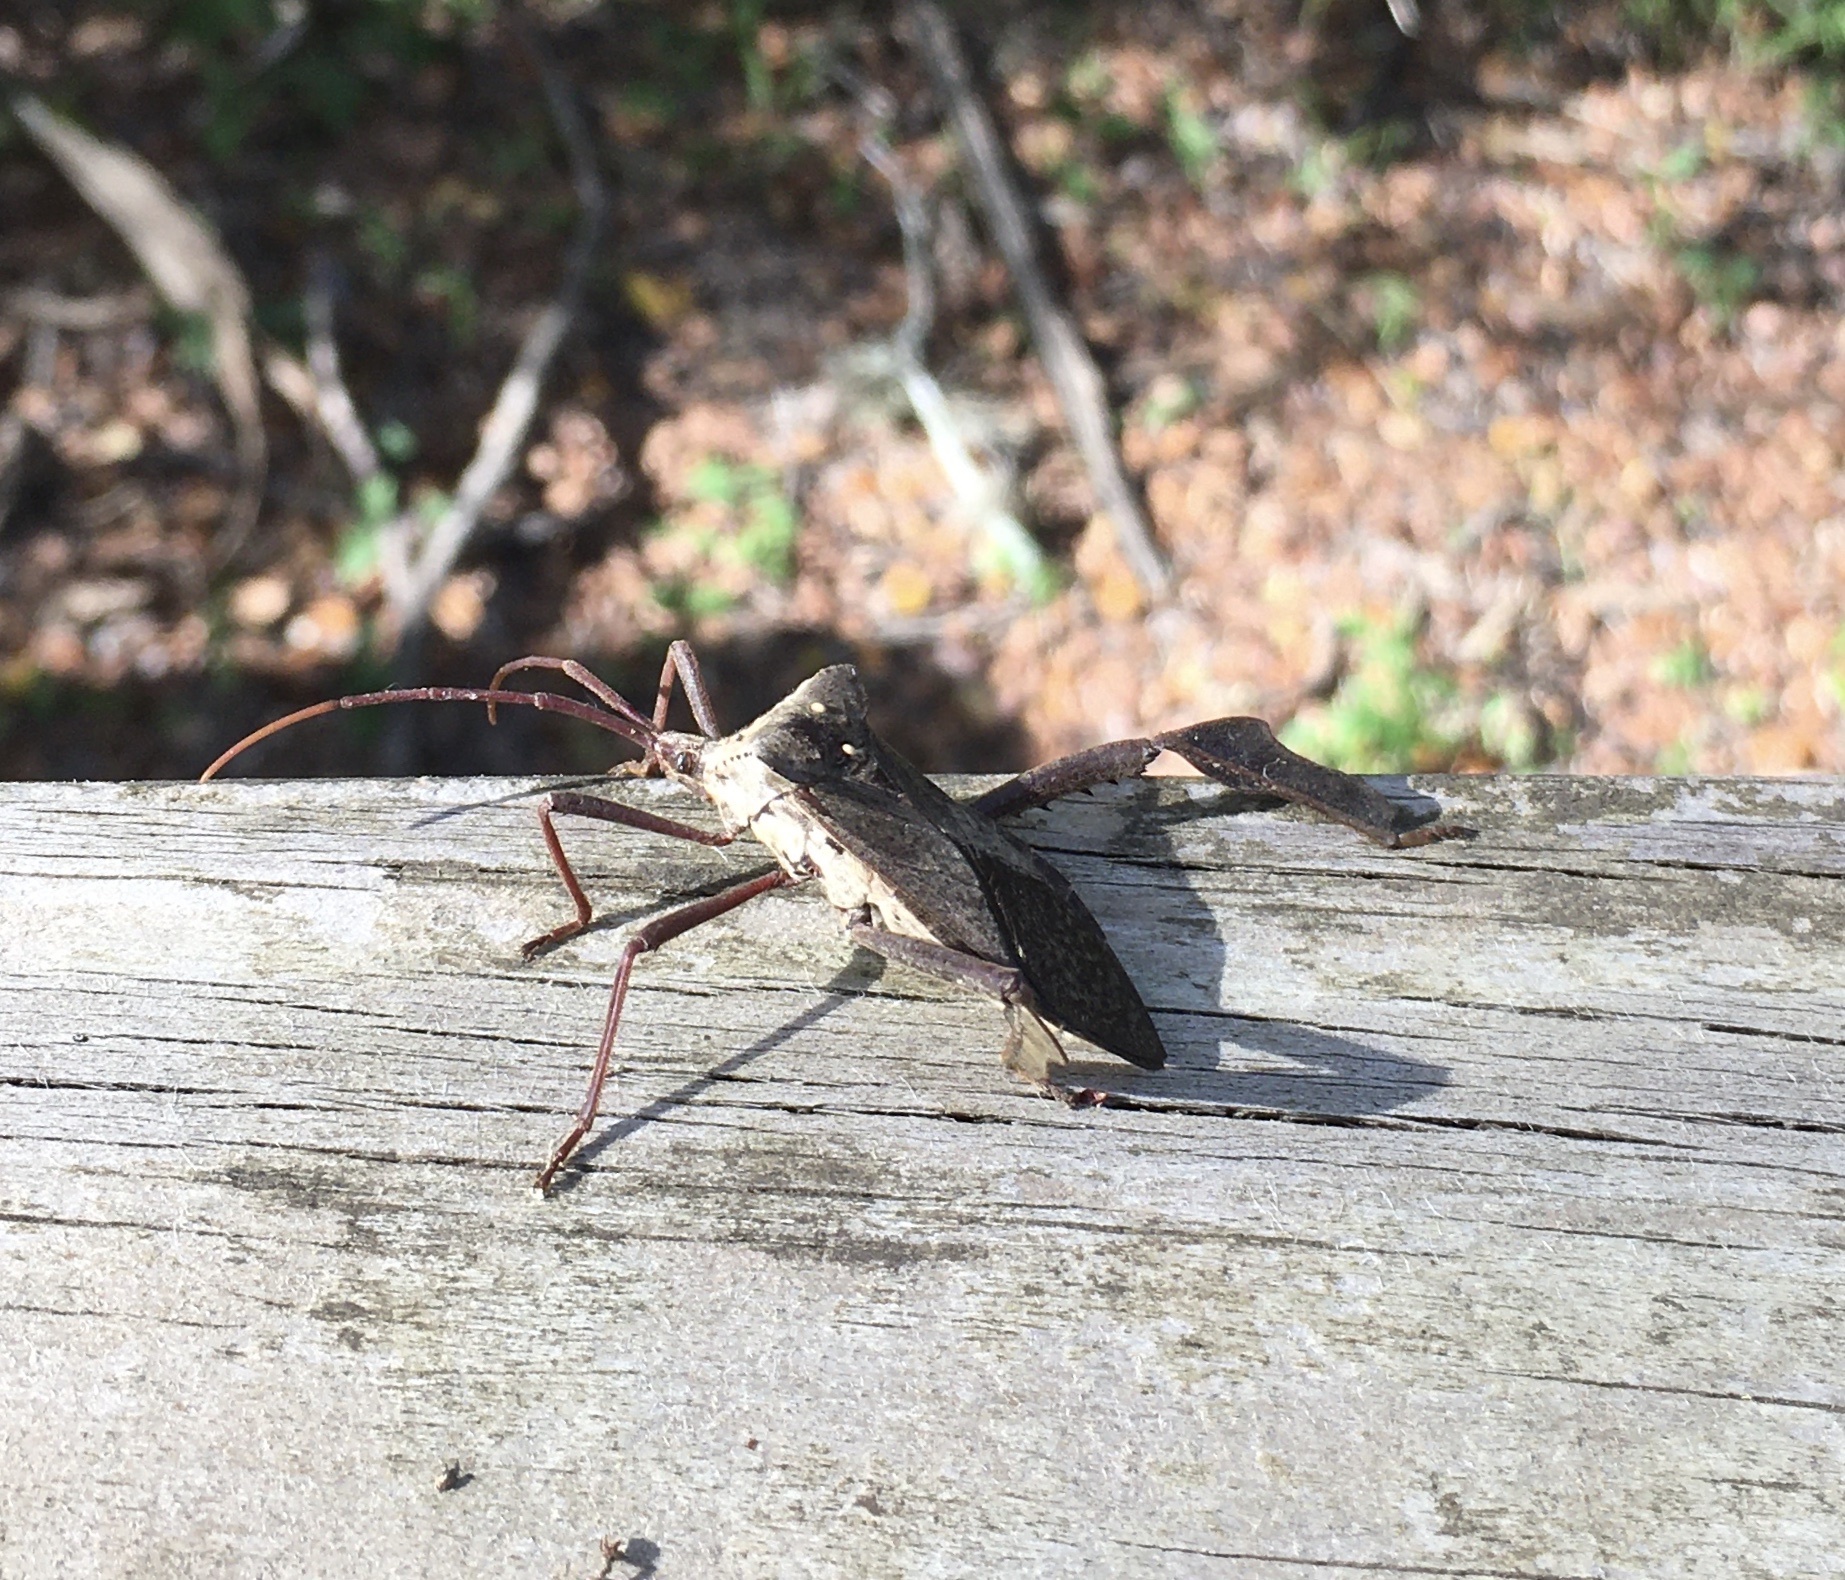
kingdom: Animalia
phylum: Arthropoda
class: Insecta
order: Hemiptera
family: Coreidae
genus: Acanthocephala
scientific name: Acanthocephala declivis
